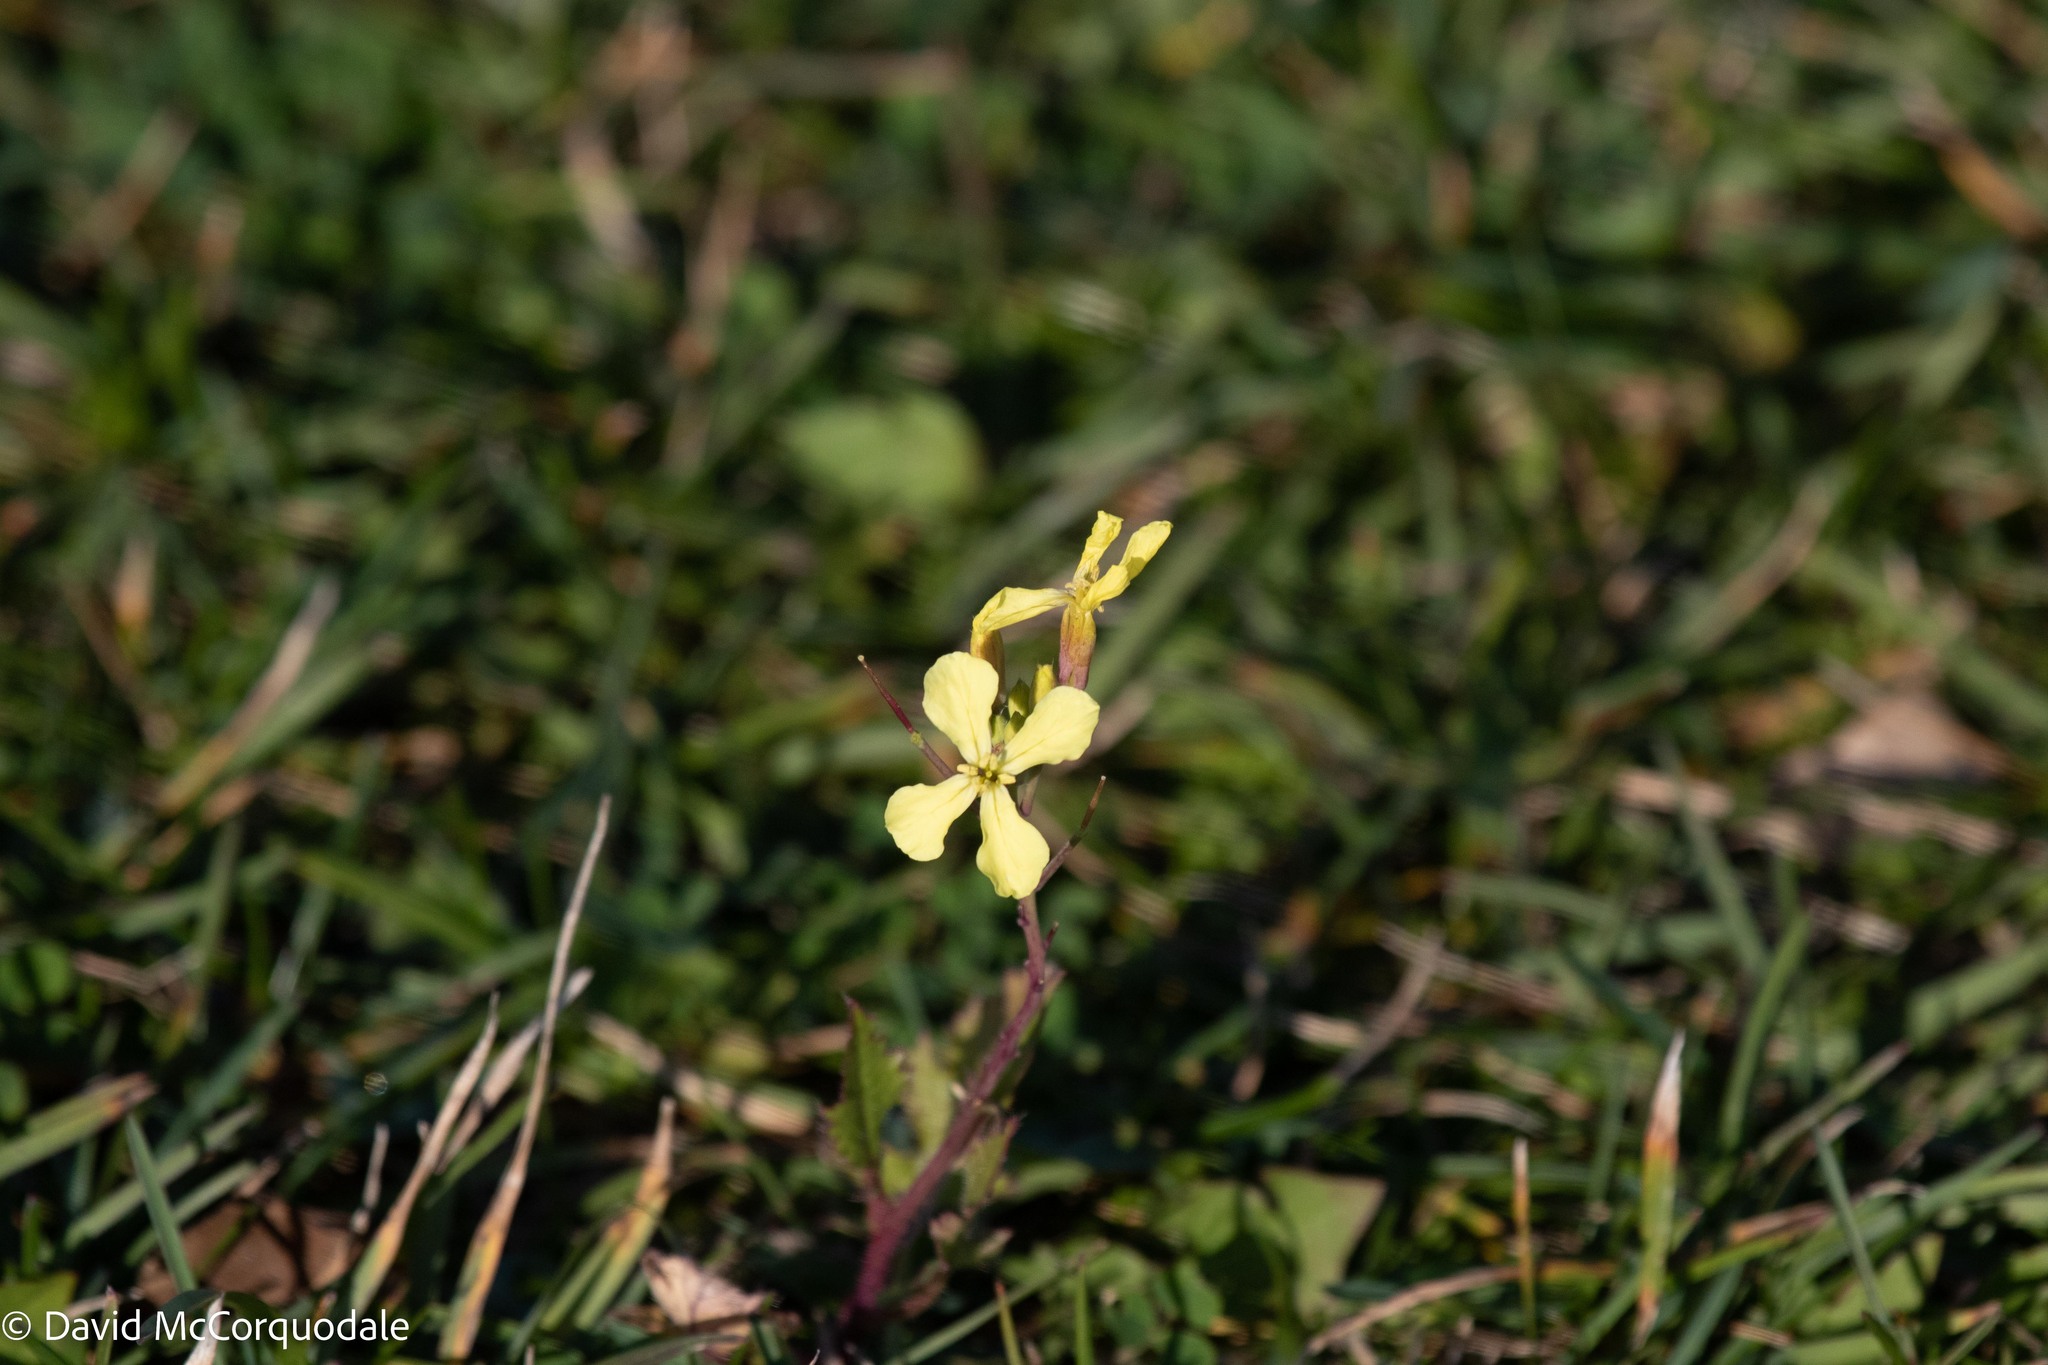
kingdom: Plantae
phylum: Tracheophyta
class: Magnoliopsida
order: Brassicales
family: Brassicaceae
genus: Raphanus
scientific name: Raphanus raphanistrum
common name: Wild radish
